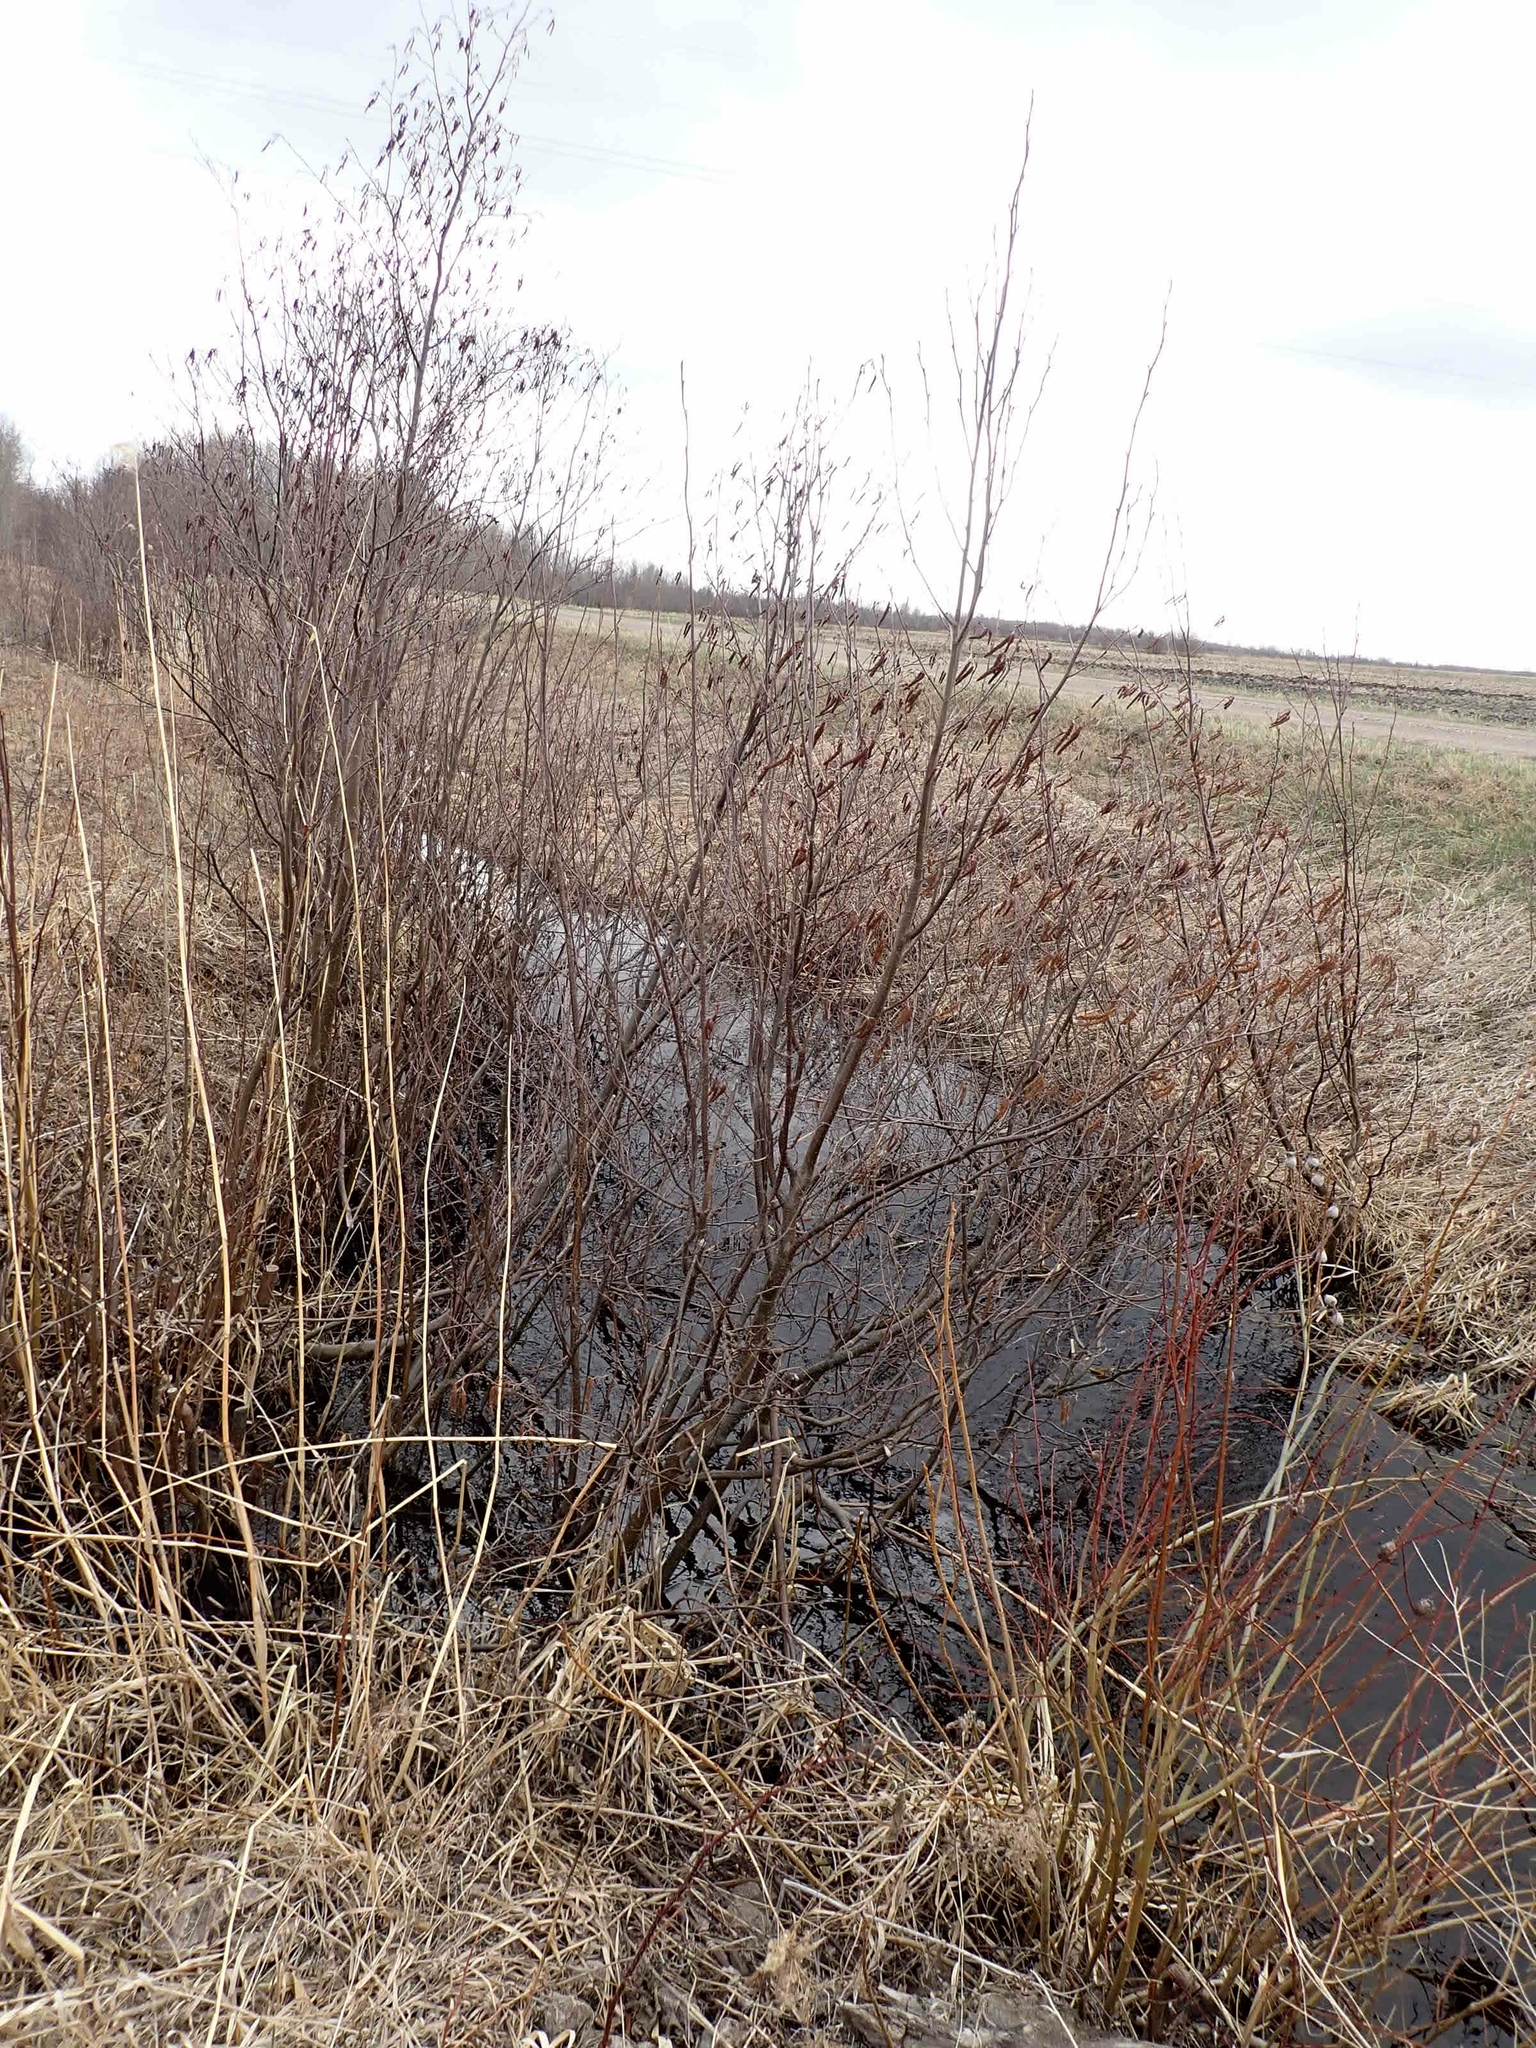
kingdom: Plantae
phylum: Tracheophyta
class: Magnoliopsida
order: Fagales
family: Betulaceae
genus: Alnus
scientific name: Alnus incana
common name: Grey alder
